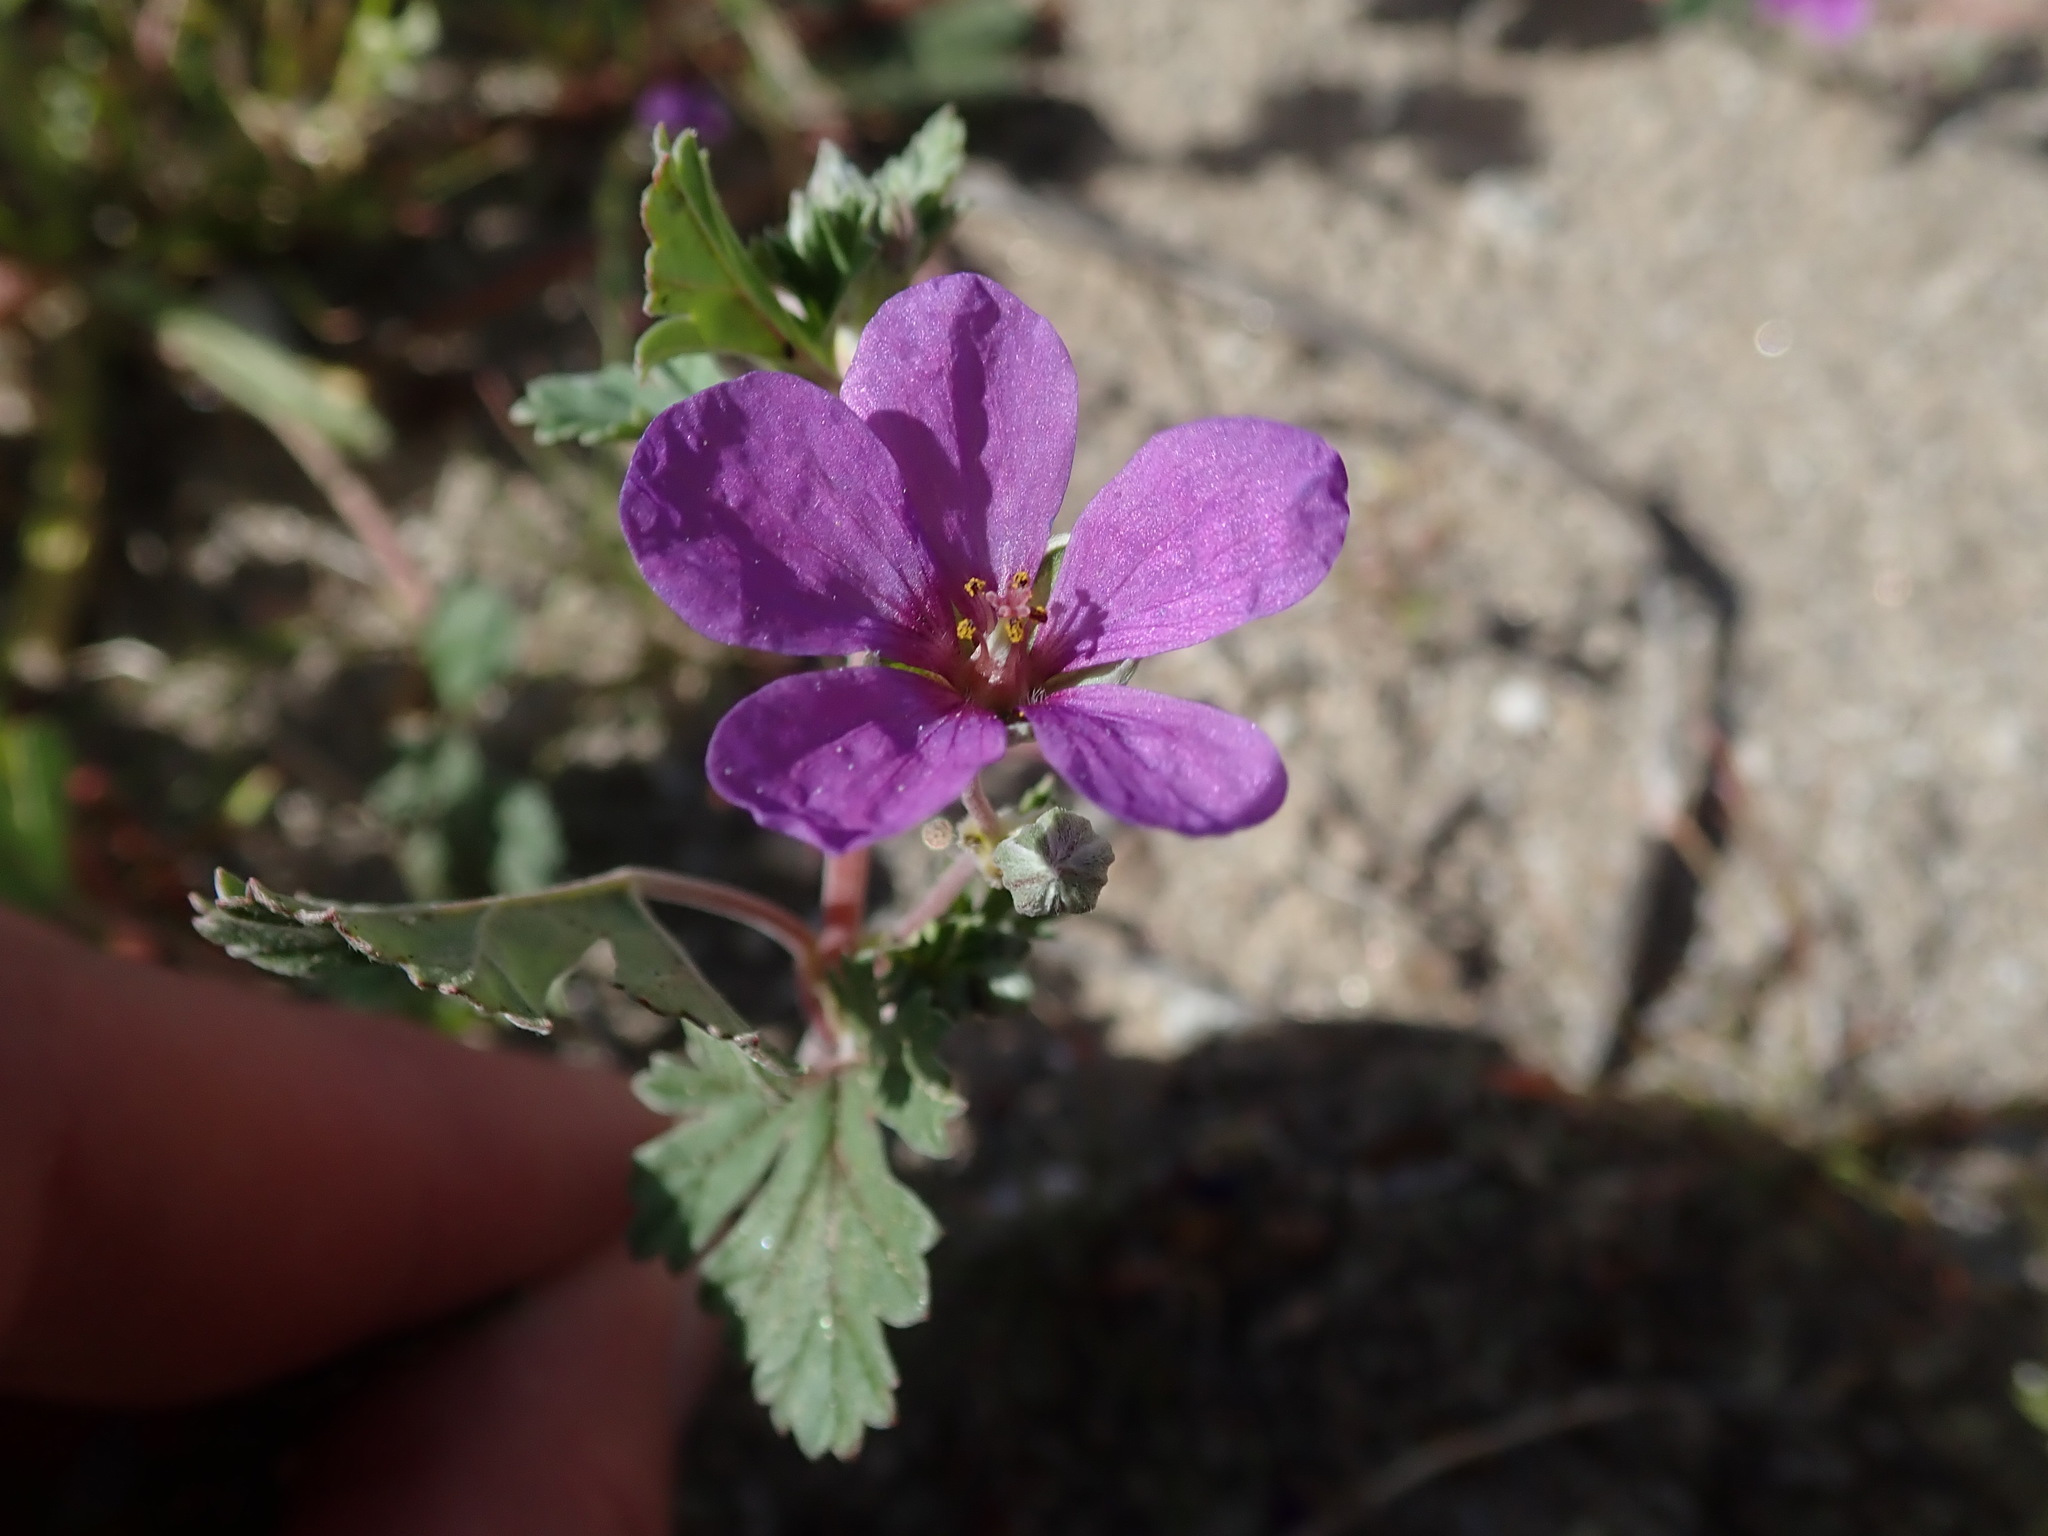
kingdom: Plantae
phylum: Tracheophyta
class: Magnoliopsida
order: Geraniales
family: Geraniaceae
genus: Erodium
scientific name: Erodium texanum
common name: Texas stork's-bill
